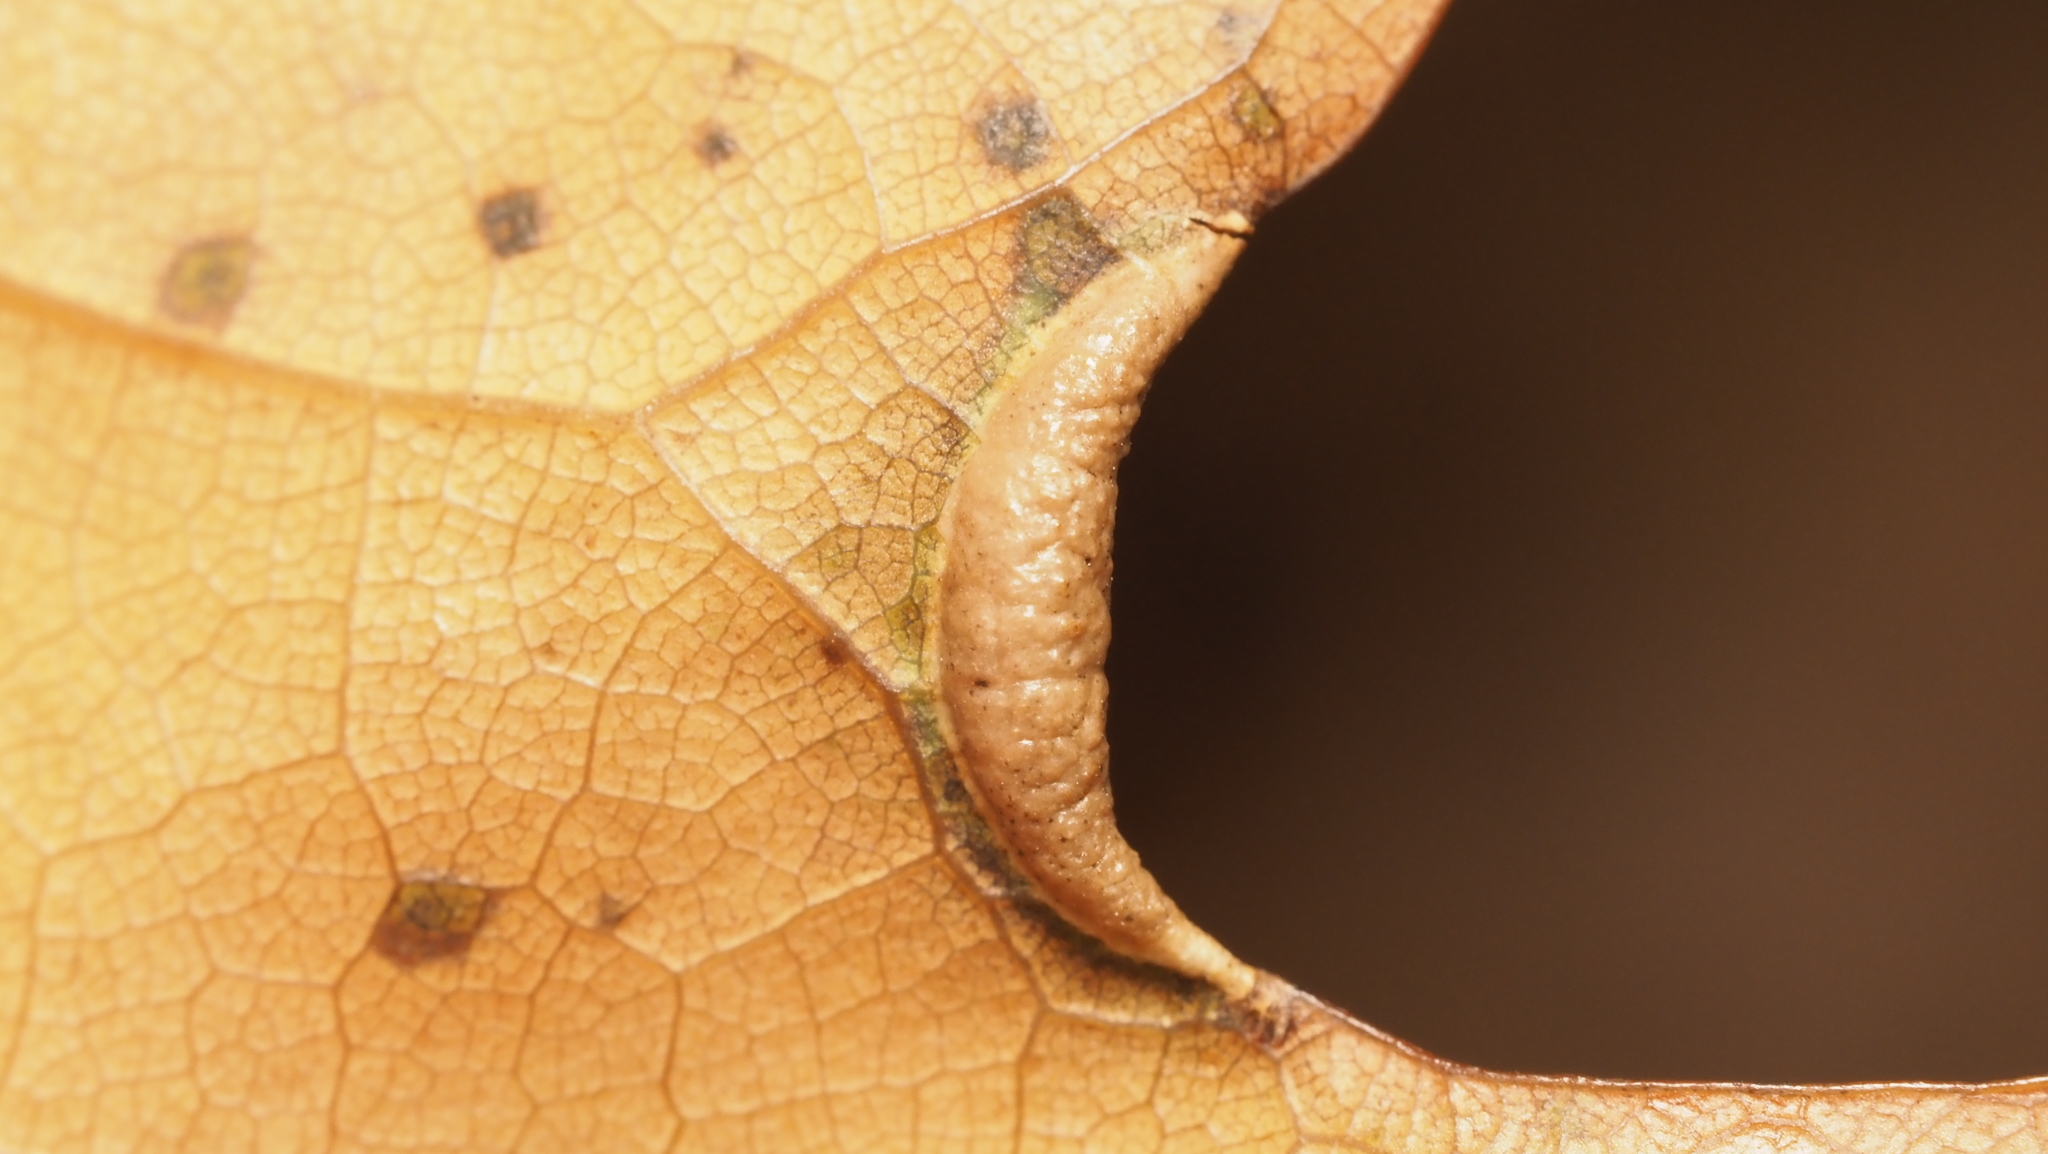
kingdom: Animalia
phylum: Arthropoda
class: Insecta
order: Diptera
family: Cecidomyiidae
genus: Macrodiplosis
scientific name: Macrodiplosis erubescens
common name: Marginal leaf fold gall midge
